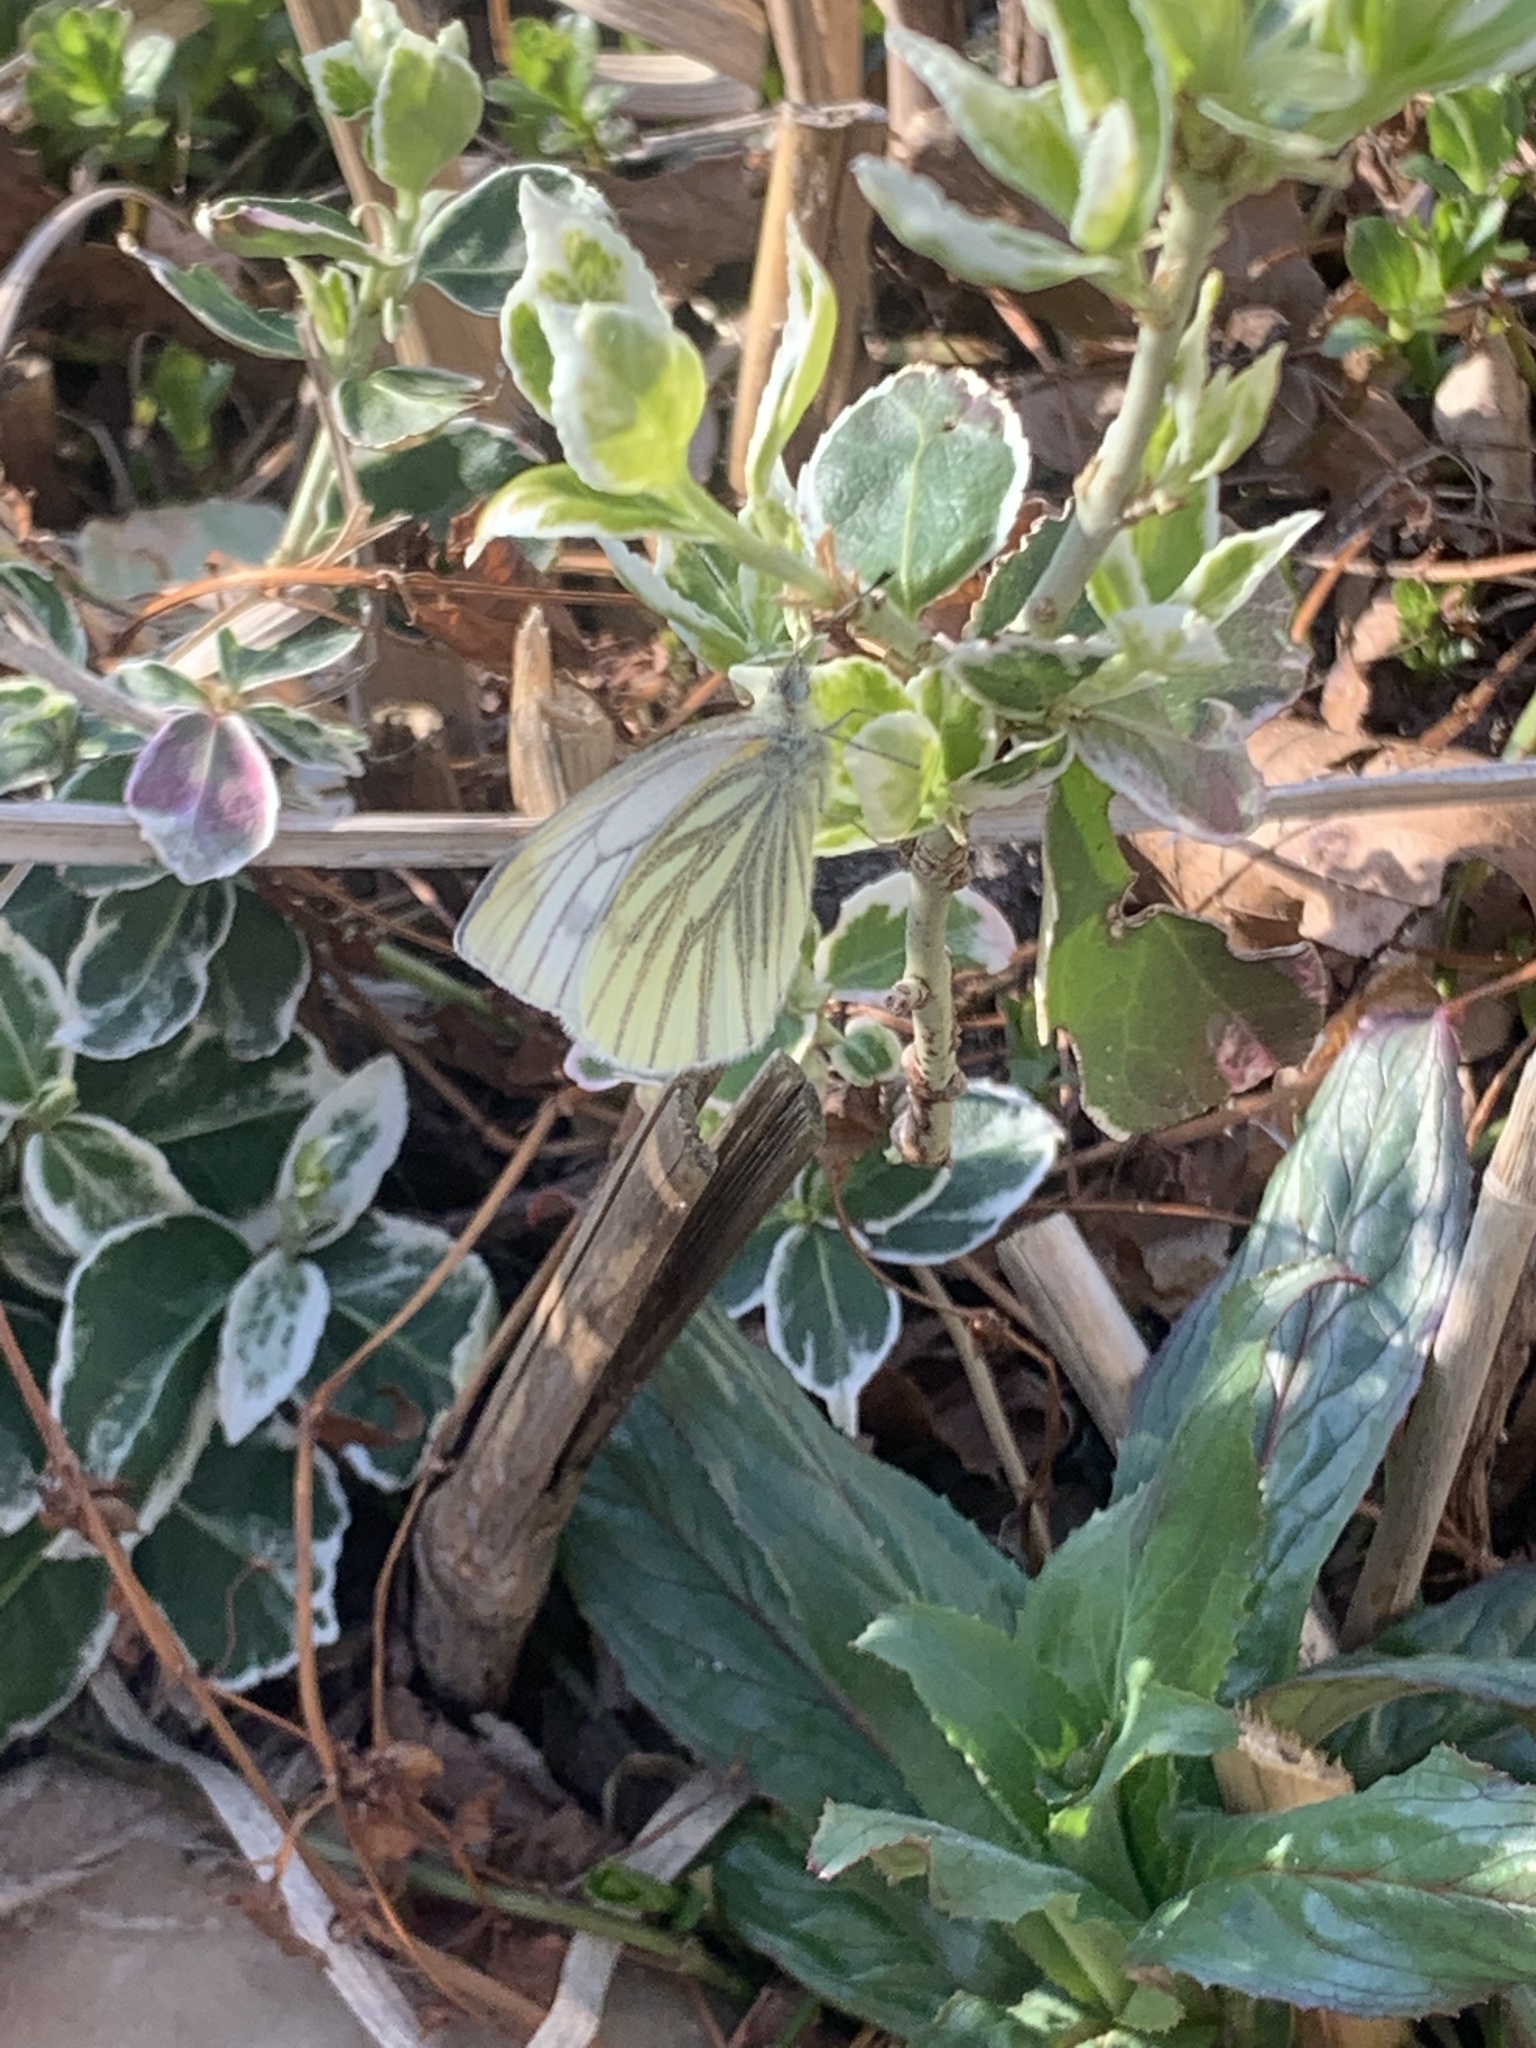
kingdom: Animalia
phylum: Arthropoda
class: Insecta
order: Lepidoptera
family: Pieridae
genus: Pieris
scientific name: Pieris napi
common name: Green-veined white
